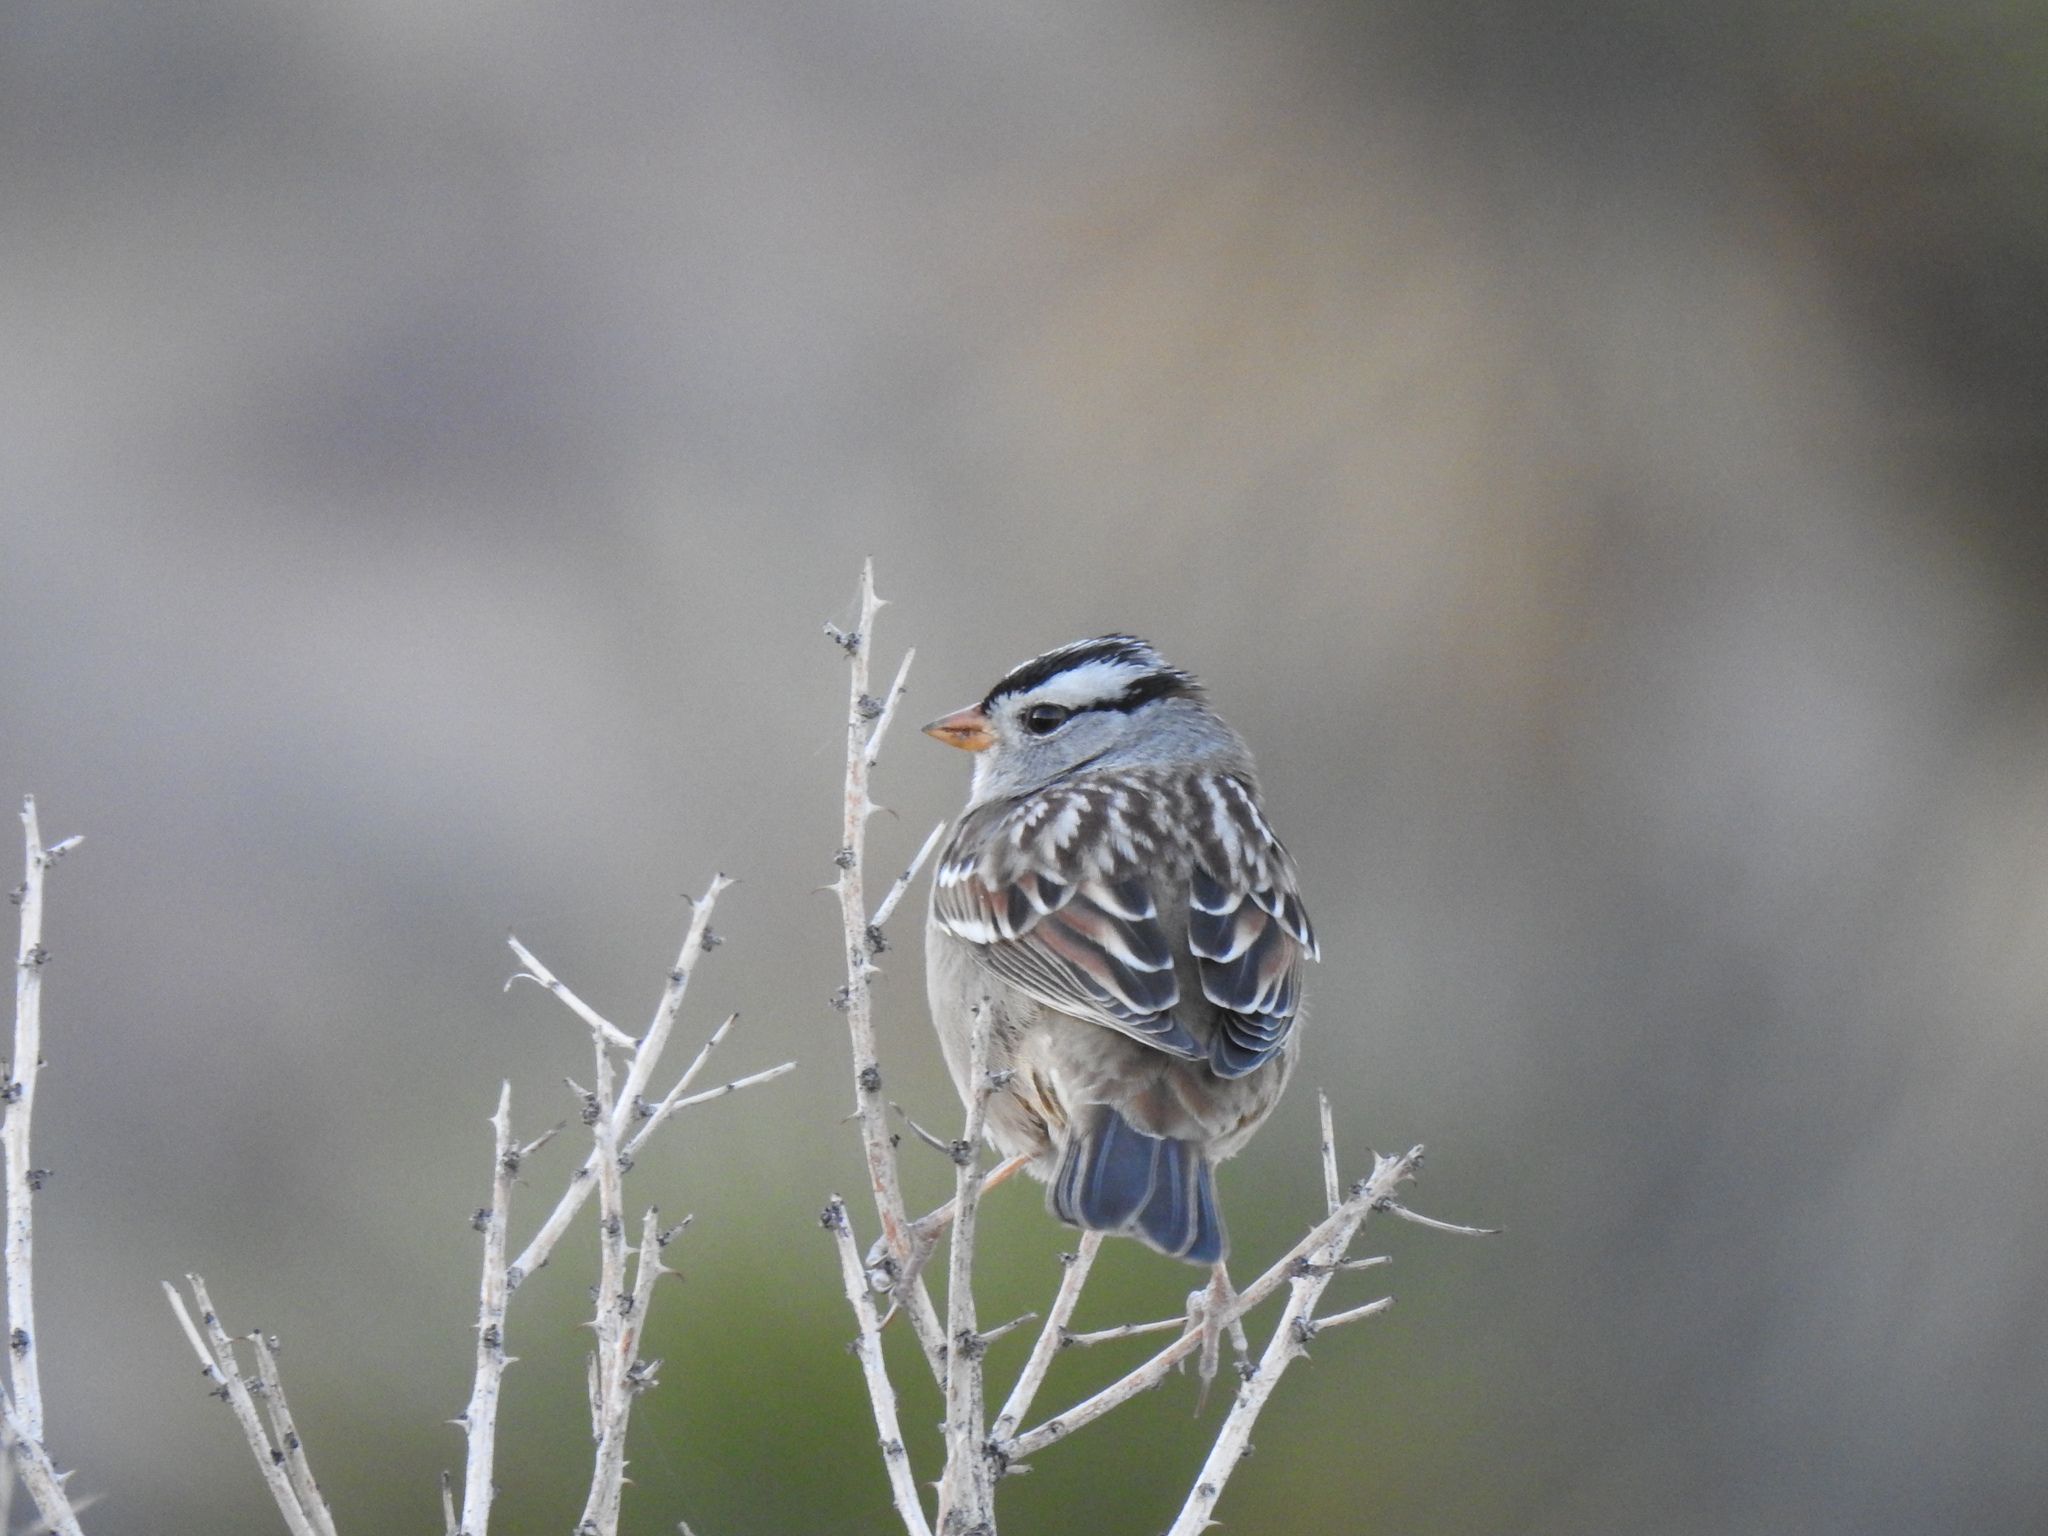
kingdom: Animalia
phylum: Chordata
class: Aves
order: Passeriformes
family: Passerellidae
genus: Zonotrichia
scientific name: Zonotrichia leucophrys
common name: White-crowned sparrow
